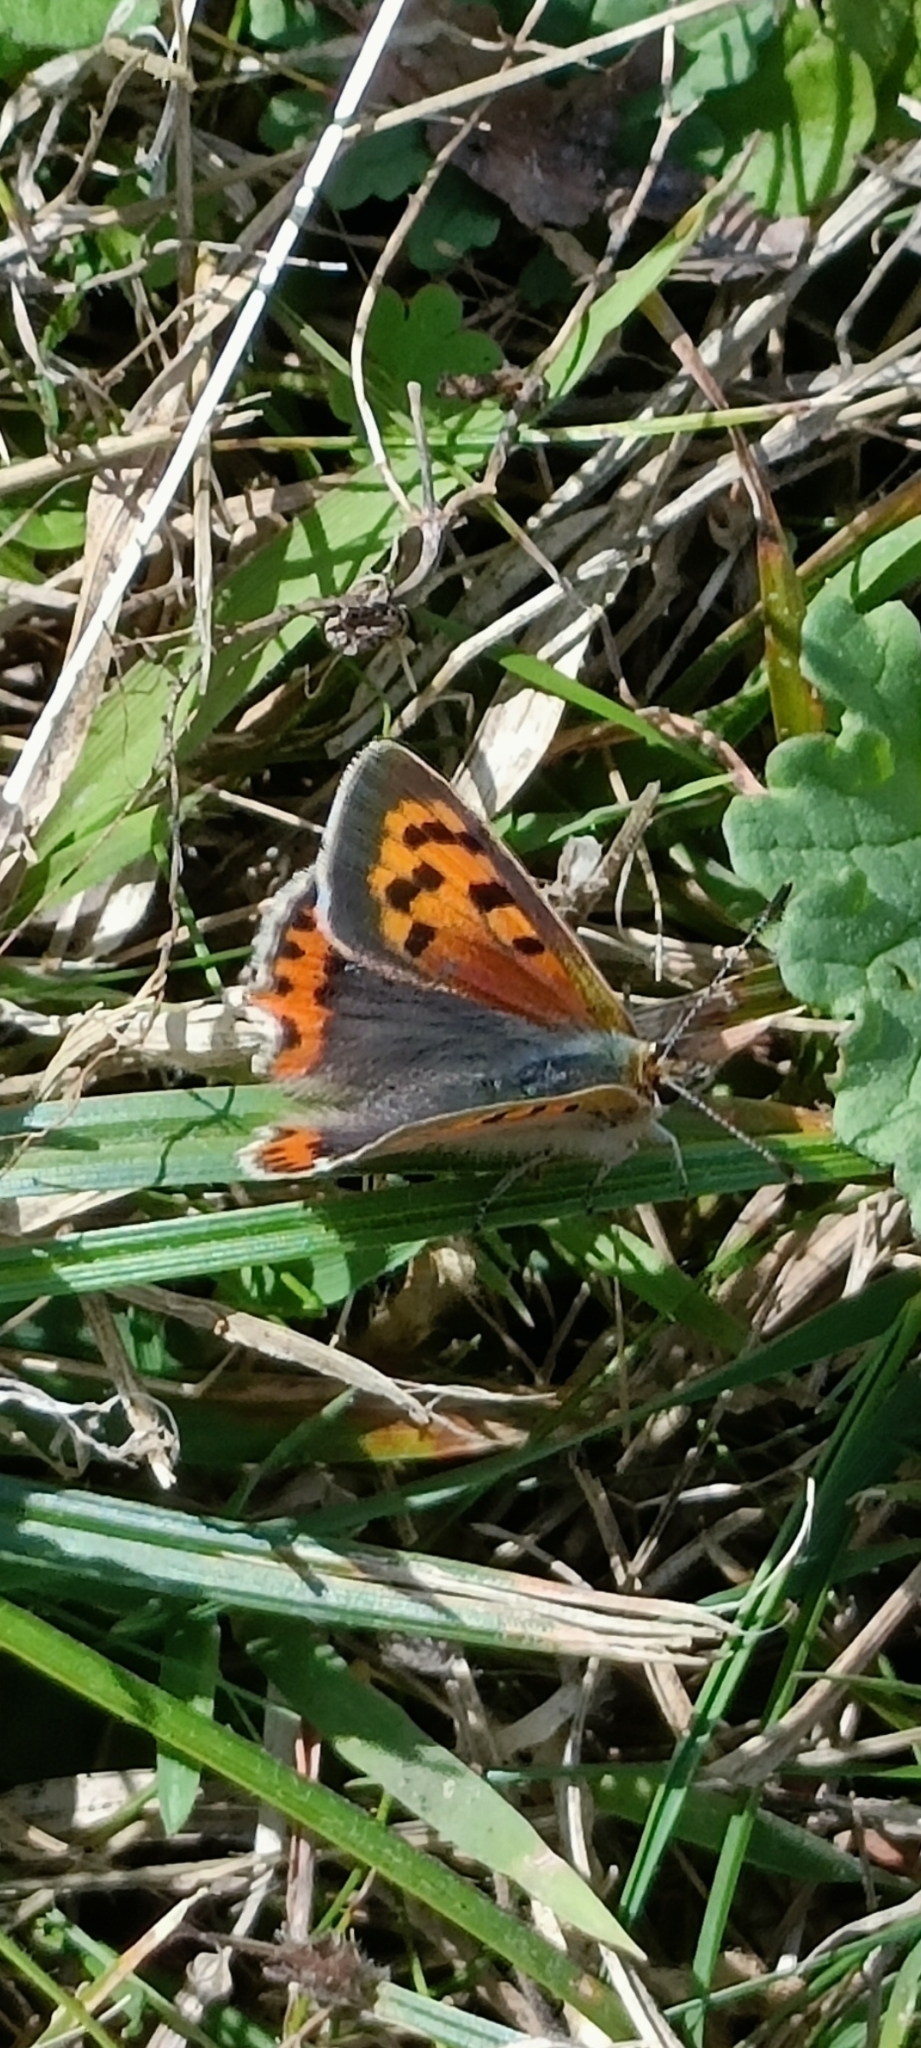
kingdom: Animalia
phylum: Arthropoda
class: Insecta
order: Lepidoptera
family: Lycaenidae
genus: Lycaena
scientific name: Lycaena phlaeas
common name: Small copper
